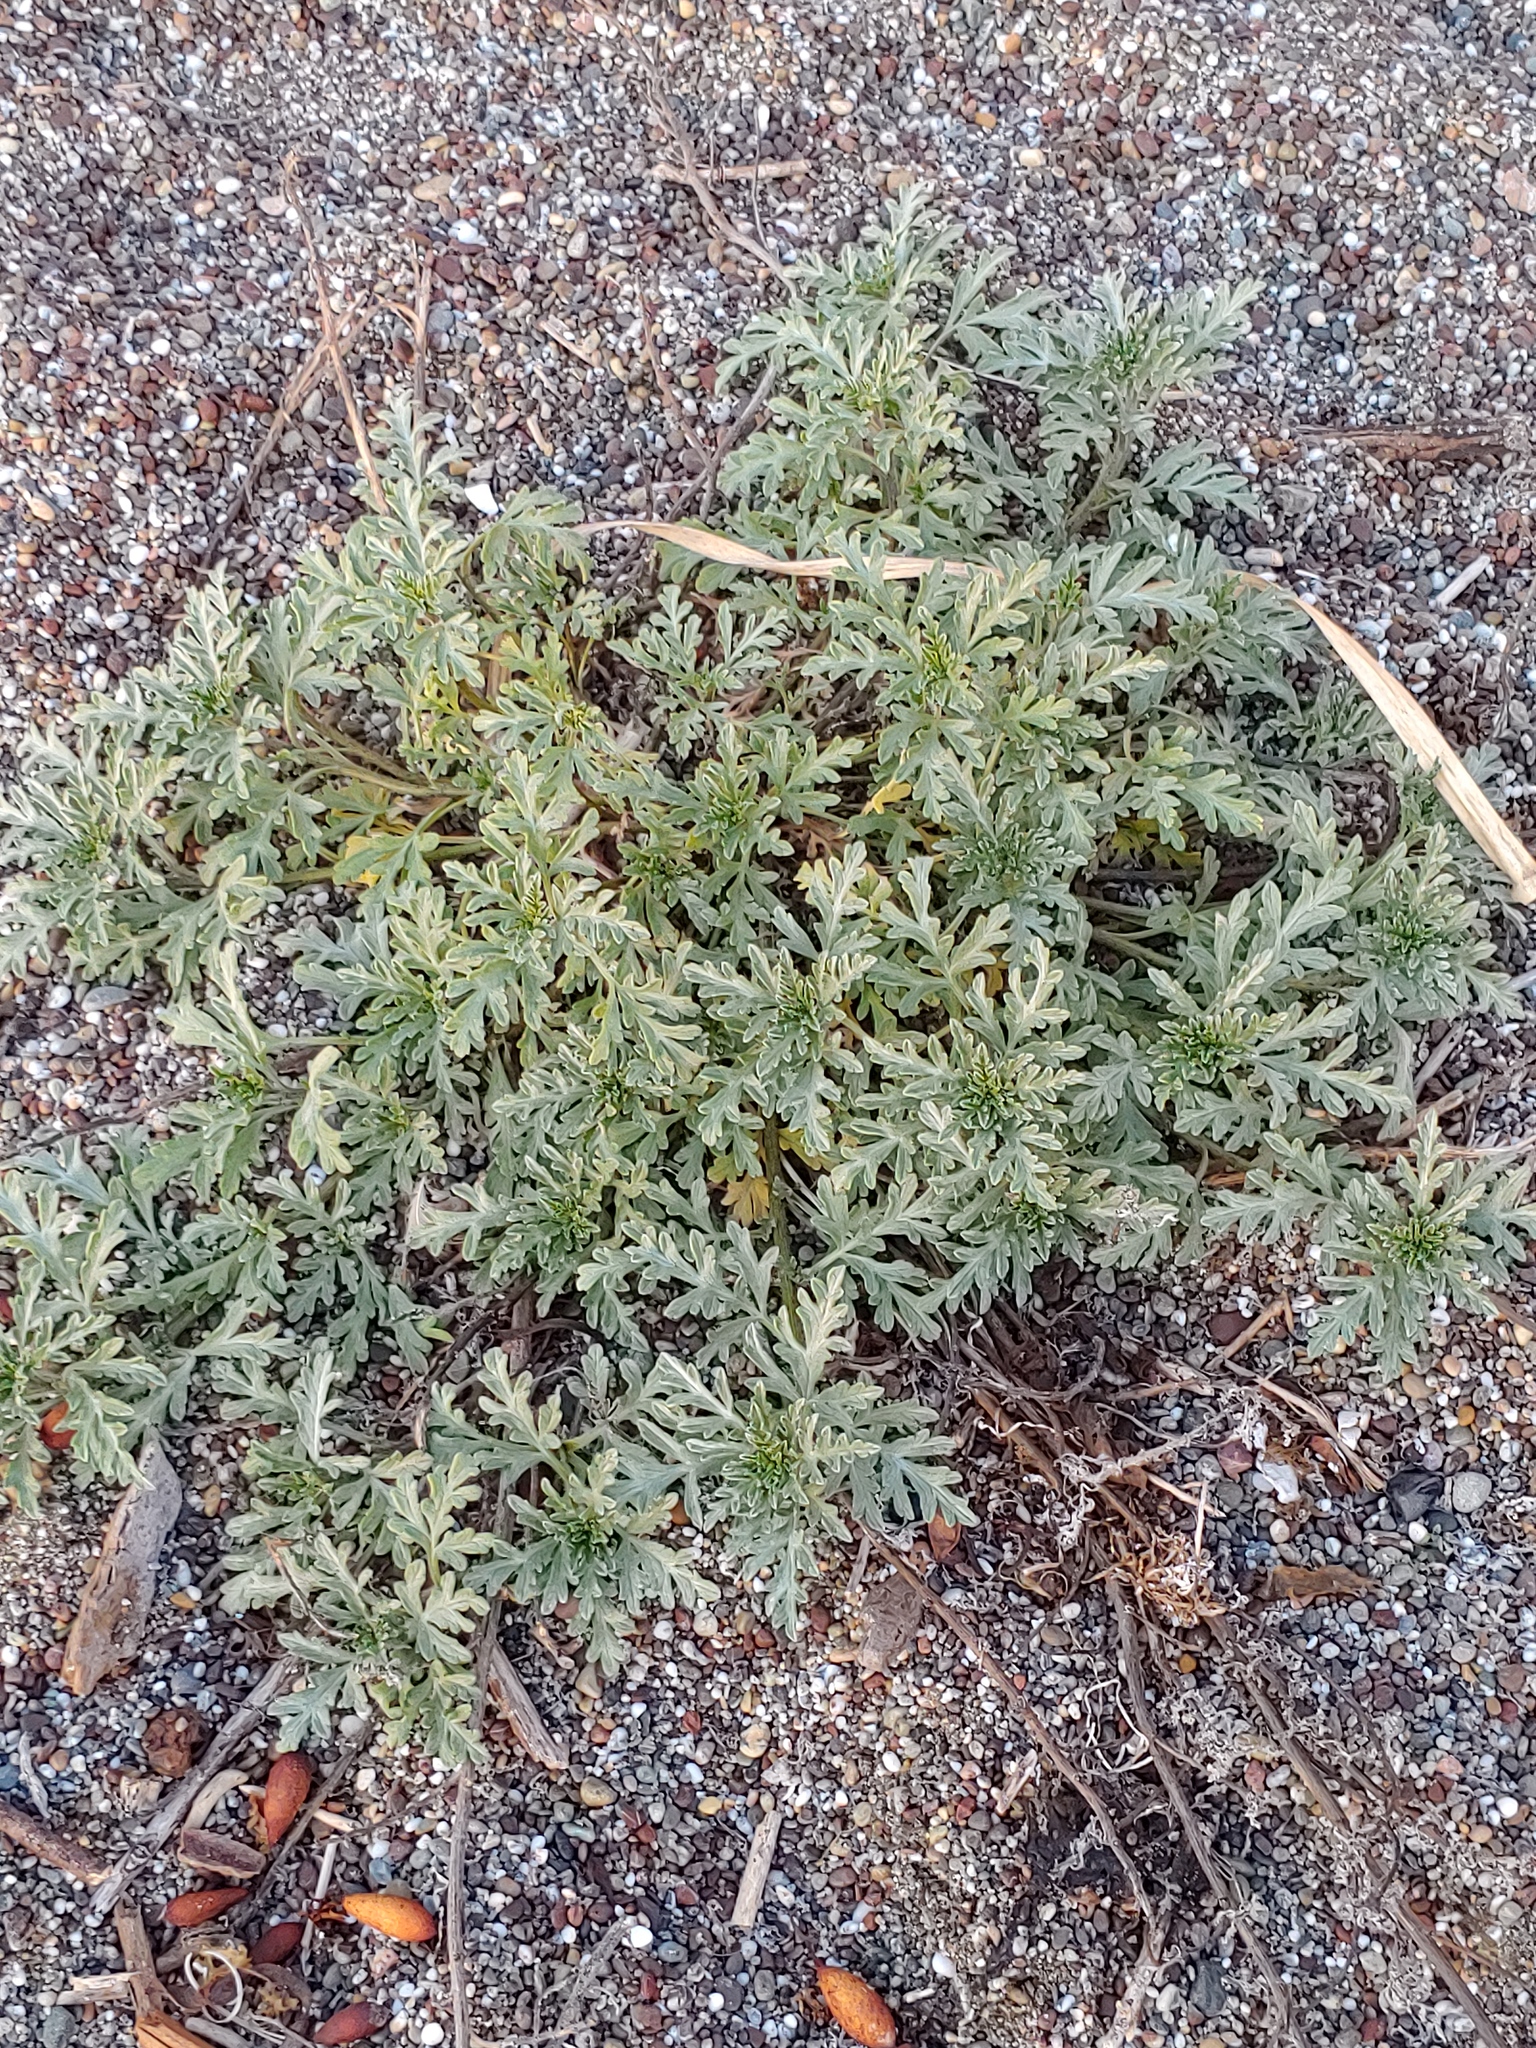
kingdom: Plantae
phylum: Tracheophyta
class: Magnoliopsida
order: Asterales
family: Asteraceae
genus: Ambrosia
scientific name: Ambrosia chamissonis
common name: Beachbur
